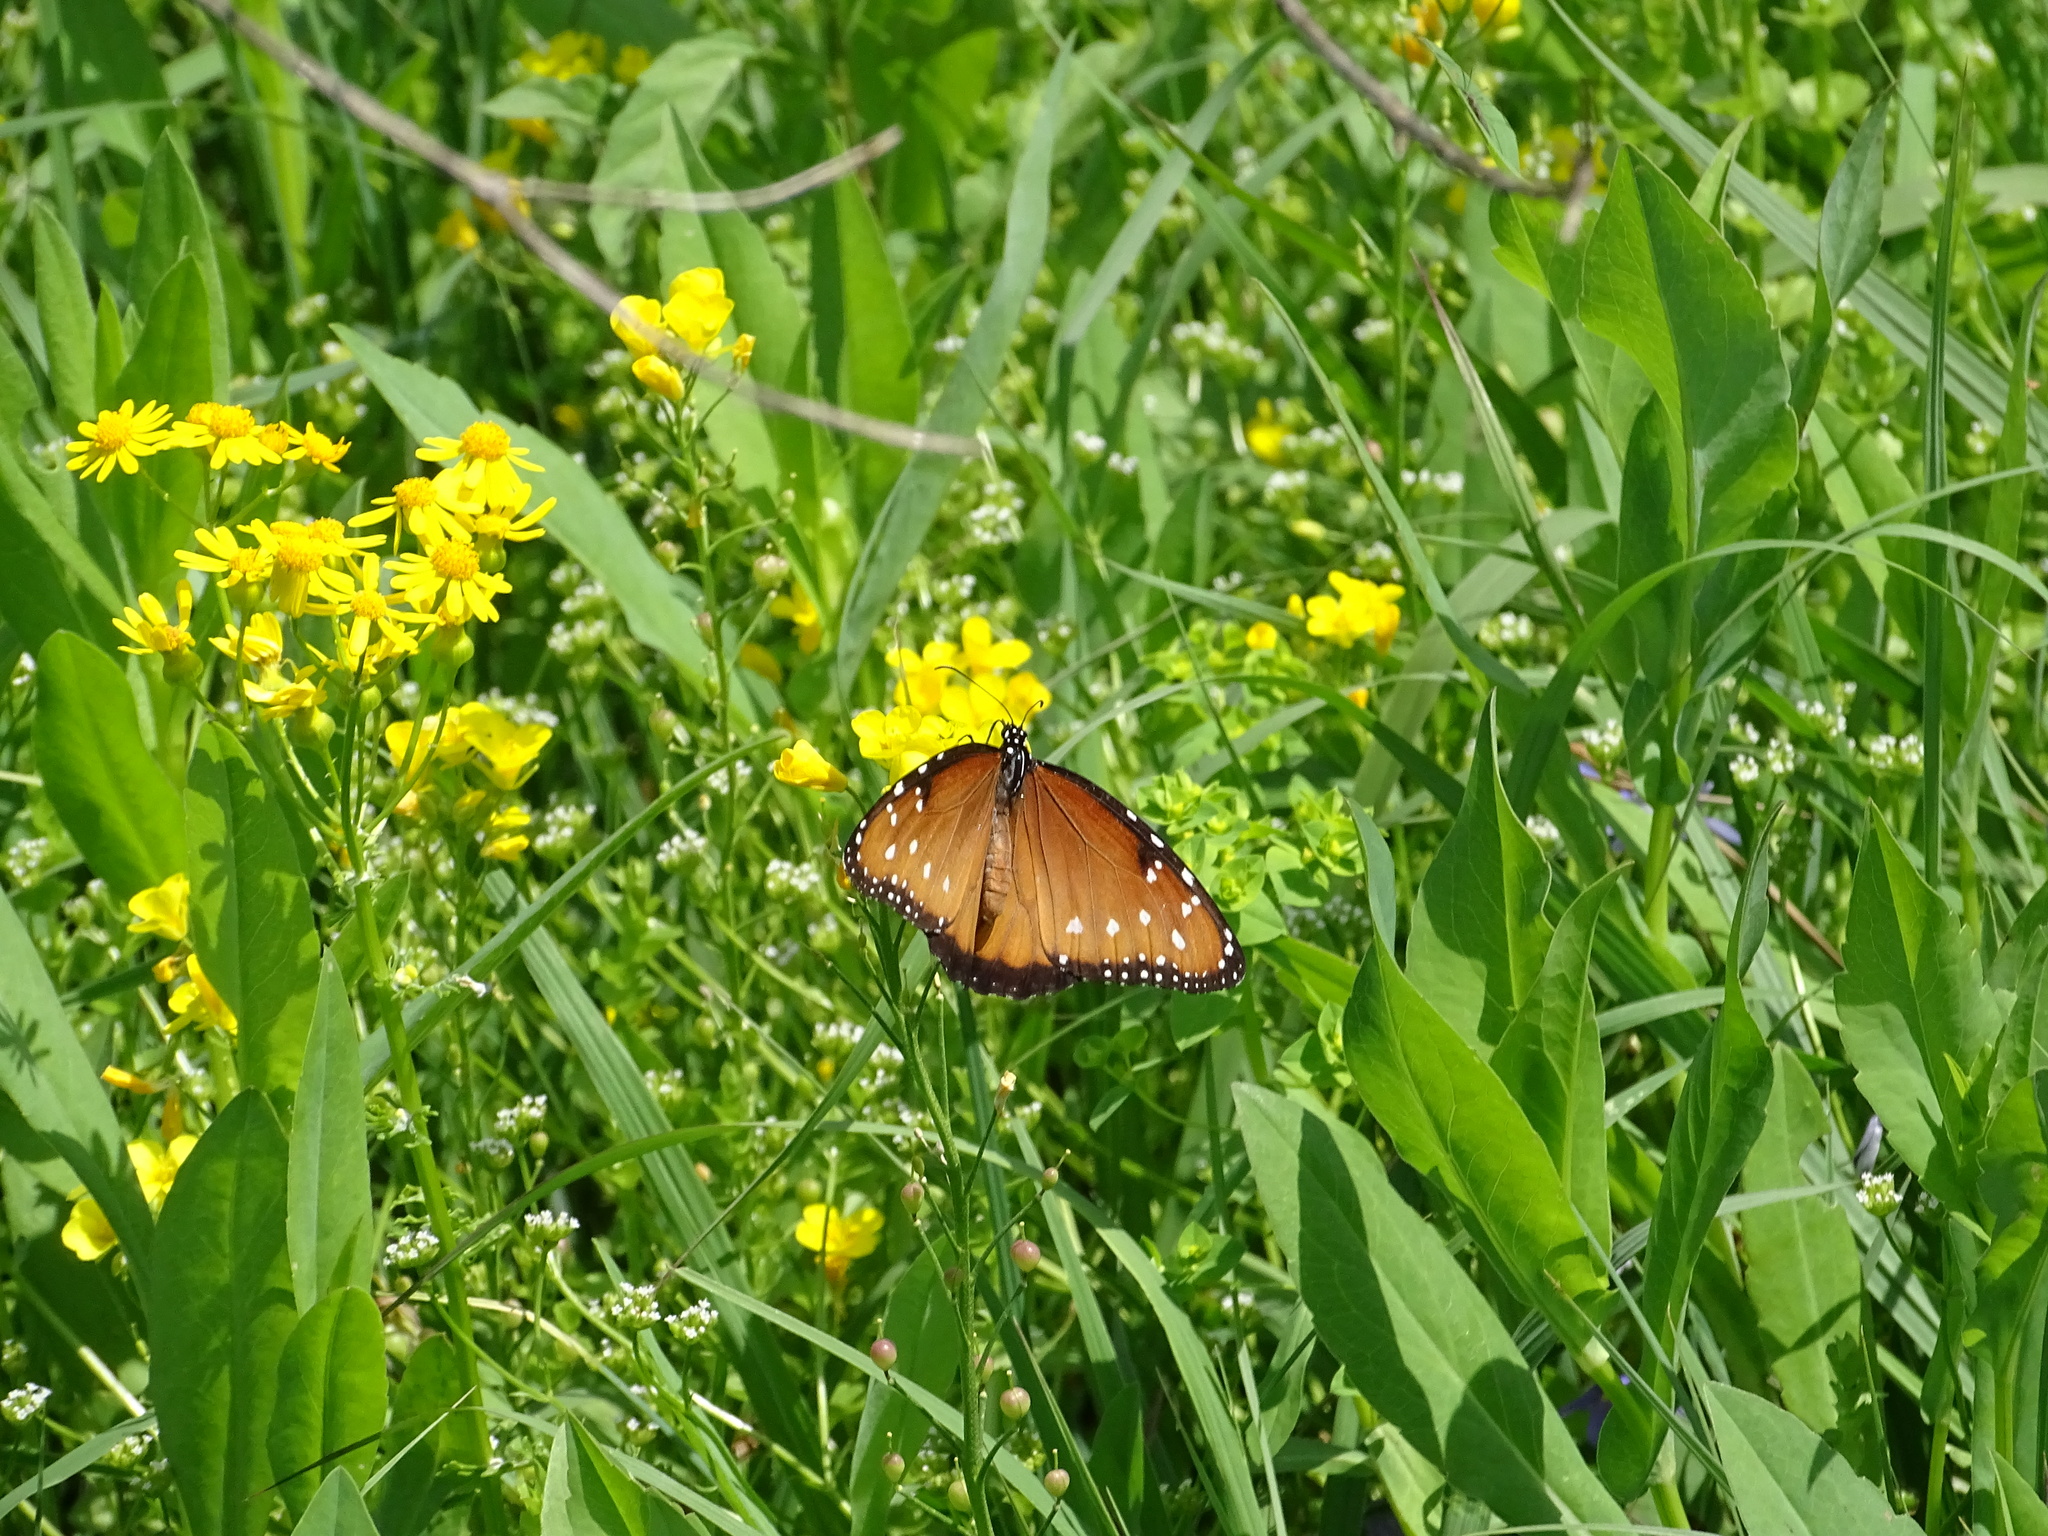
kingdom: Animalia
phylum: Arthropoda
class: Insecta
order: Lepidoptera
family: Nymphalidae
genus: Danaus
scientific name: Danaus gilippus
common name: Queen
